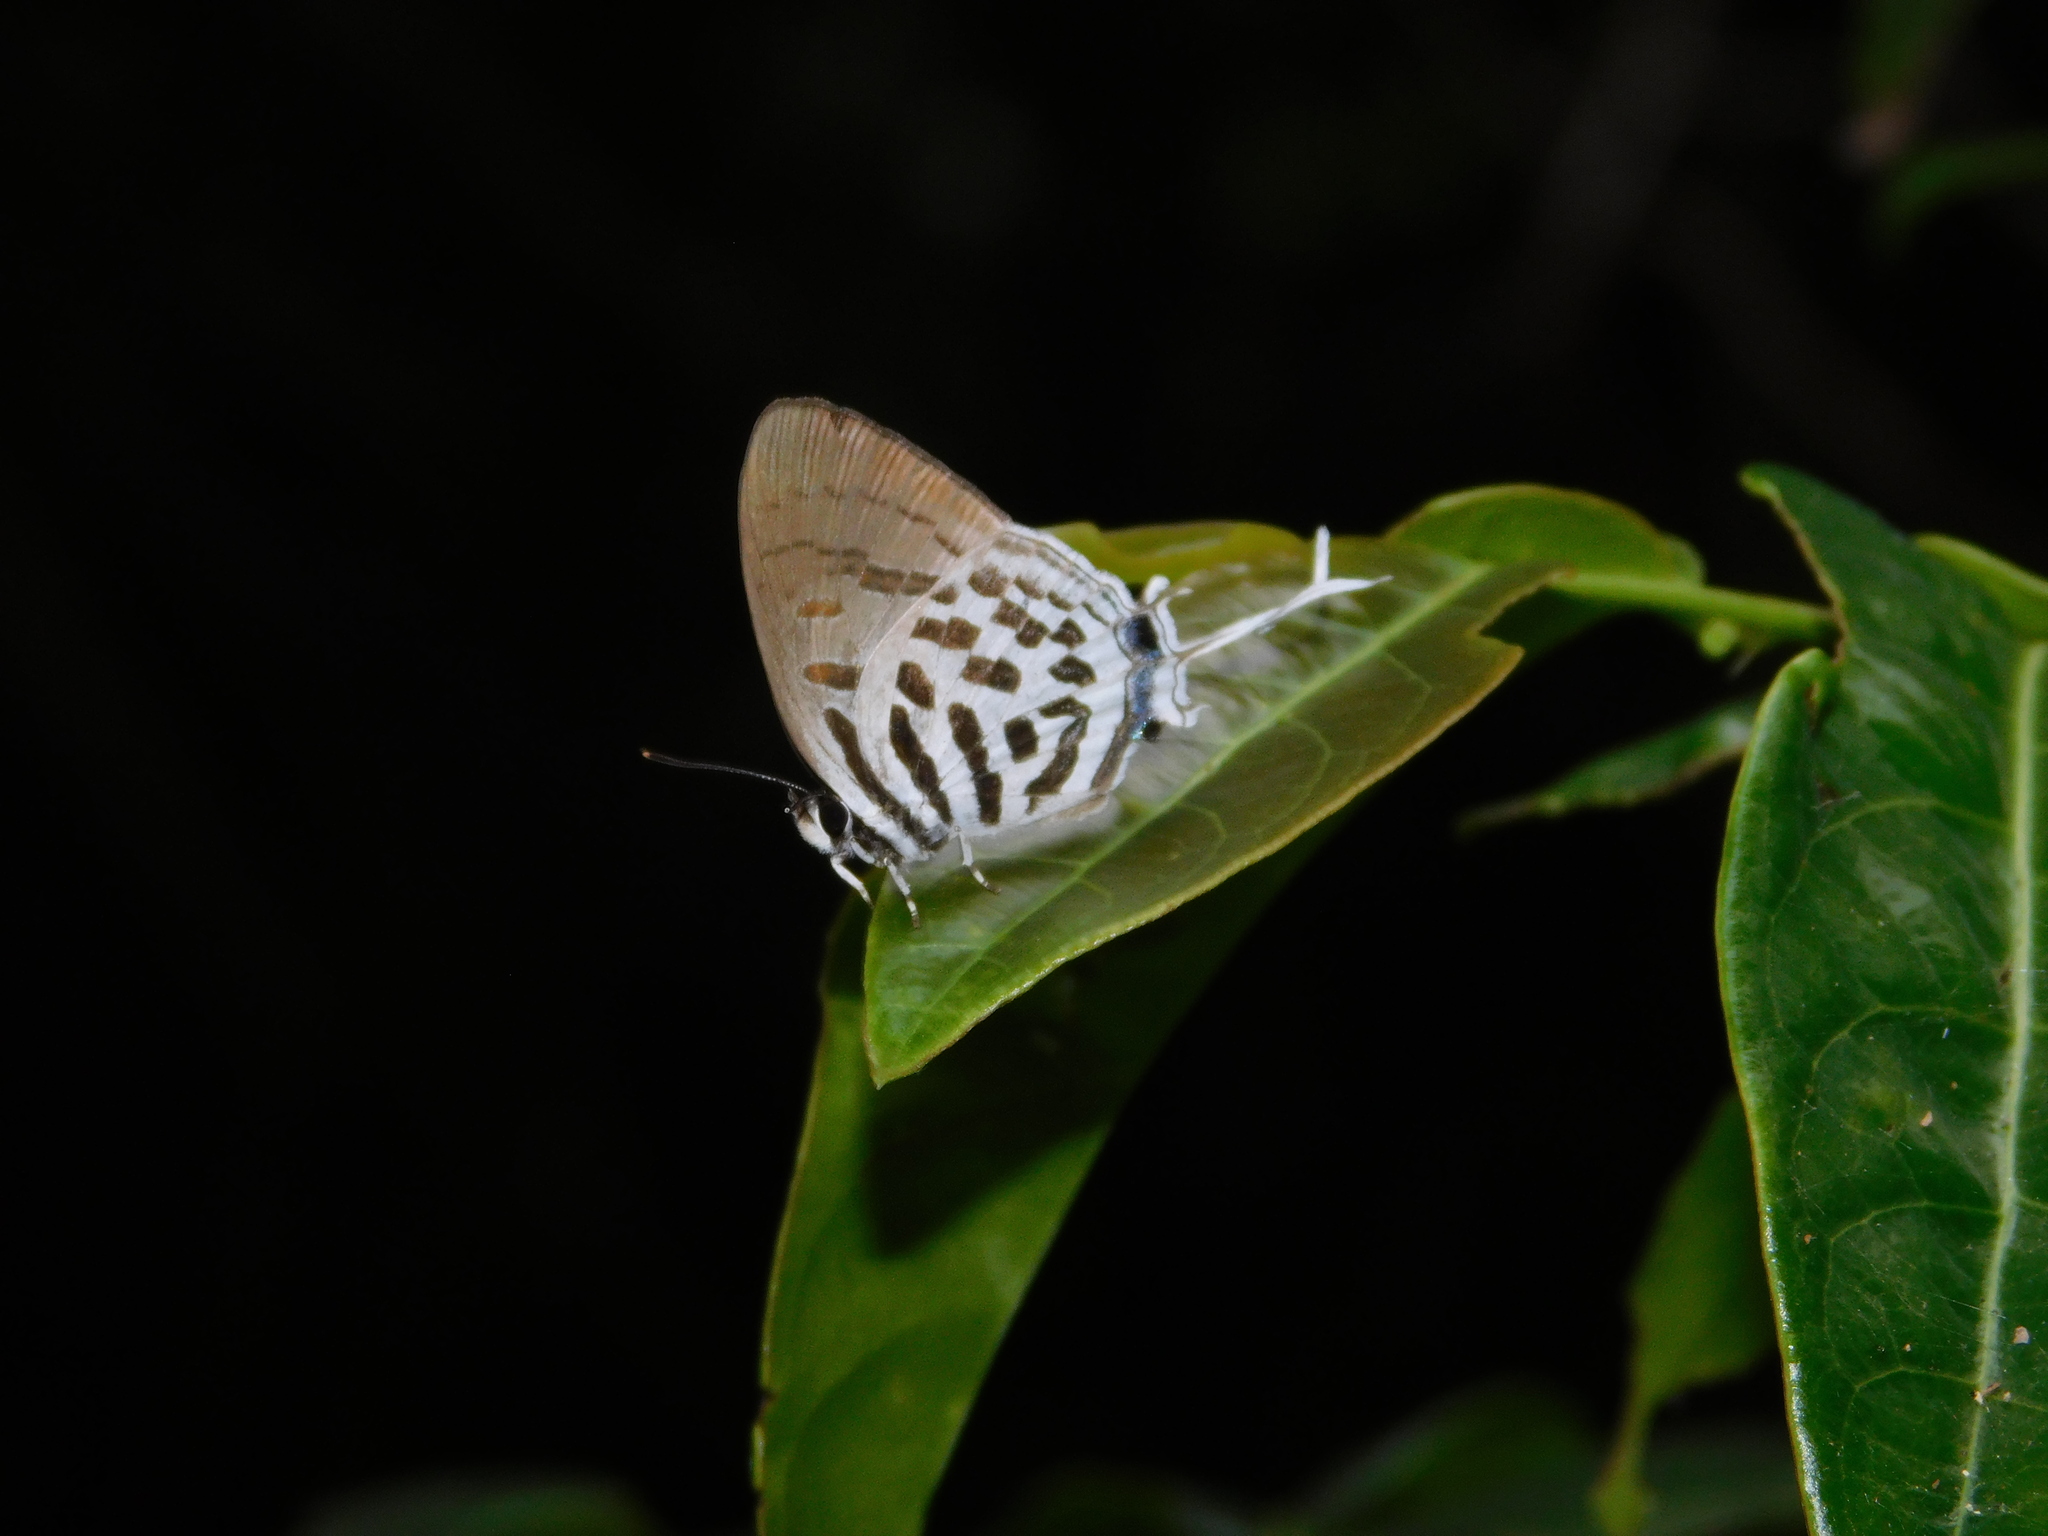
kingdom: Animalia
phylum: Arthropoda
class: Insecta
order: Lepidoptera
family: Lycaenidae
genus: Drupadia
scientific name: Drupadia ravindra
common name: Common posy
